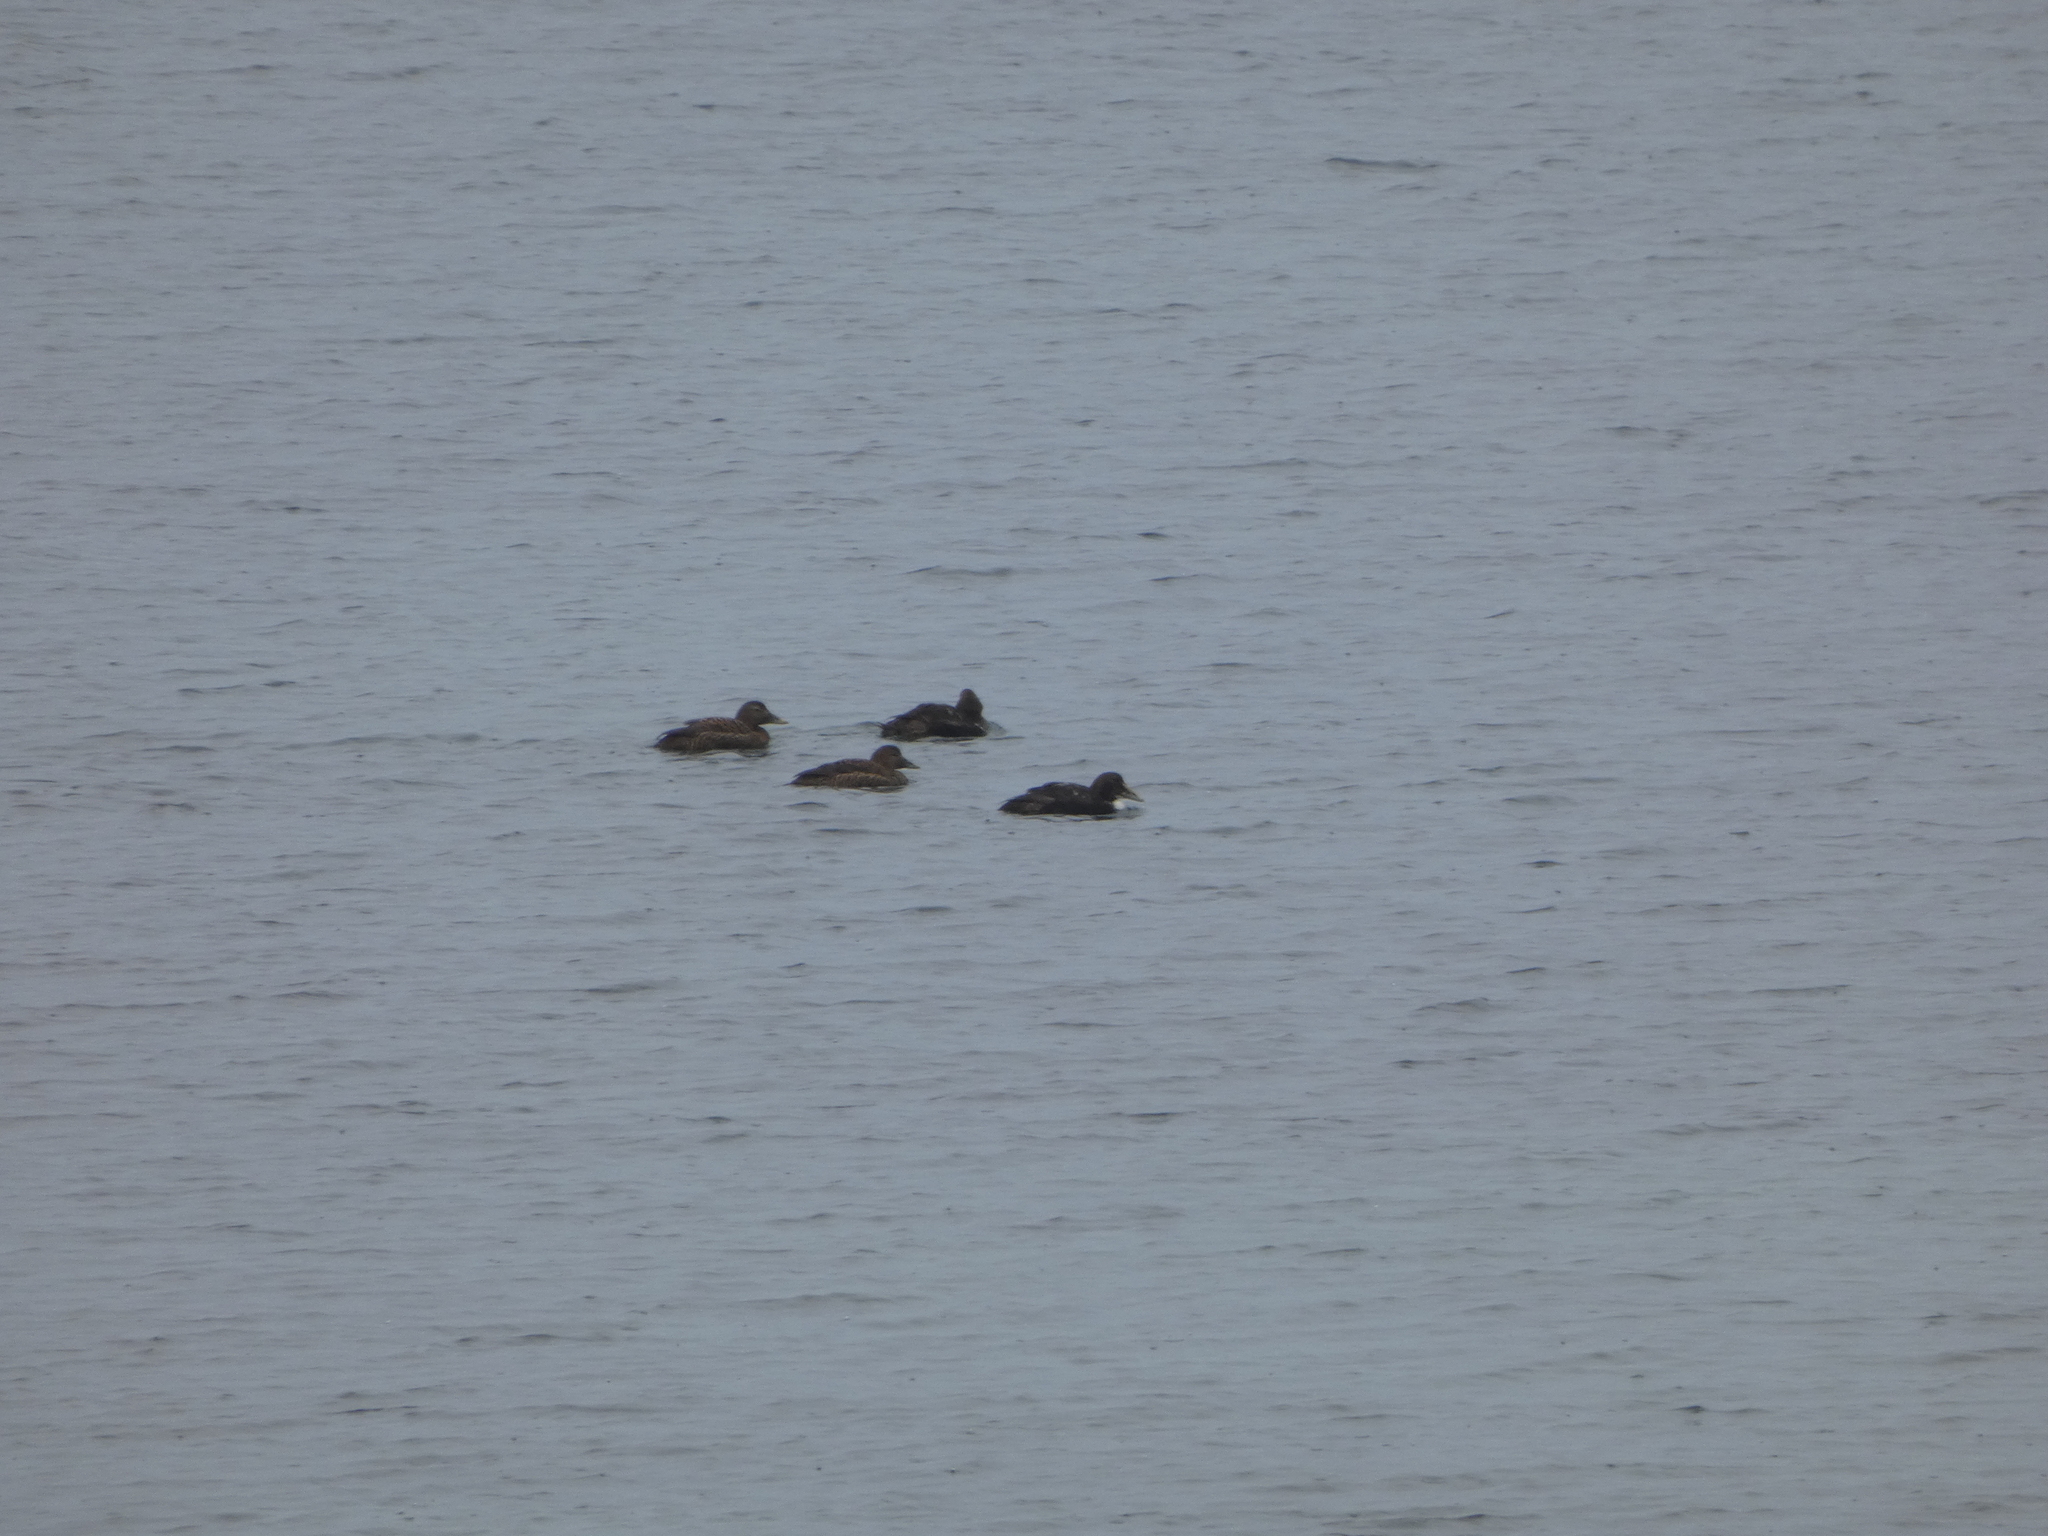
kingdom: Animalia
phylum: Chordata
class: Aves
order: Anseriformes
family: Anatidae
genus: Somateria
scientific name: Somateria mollissima
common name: Common eider
